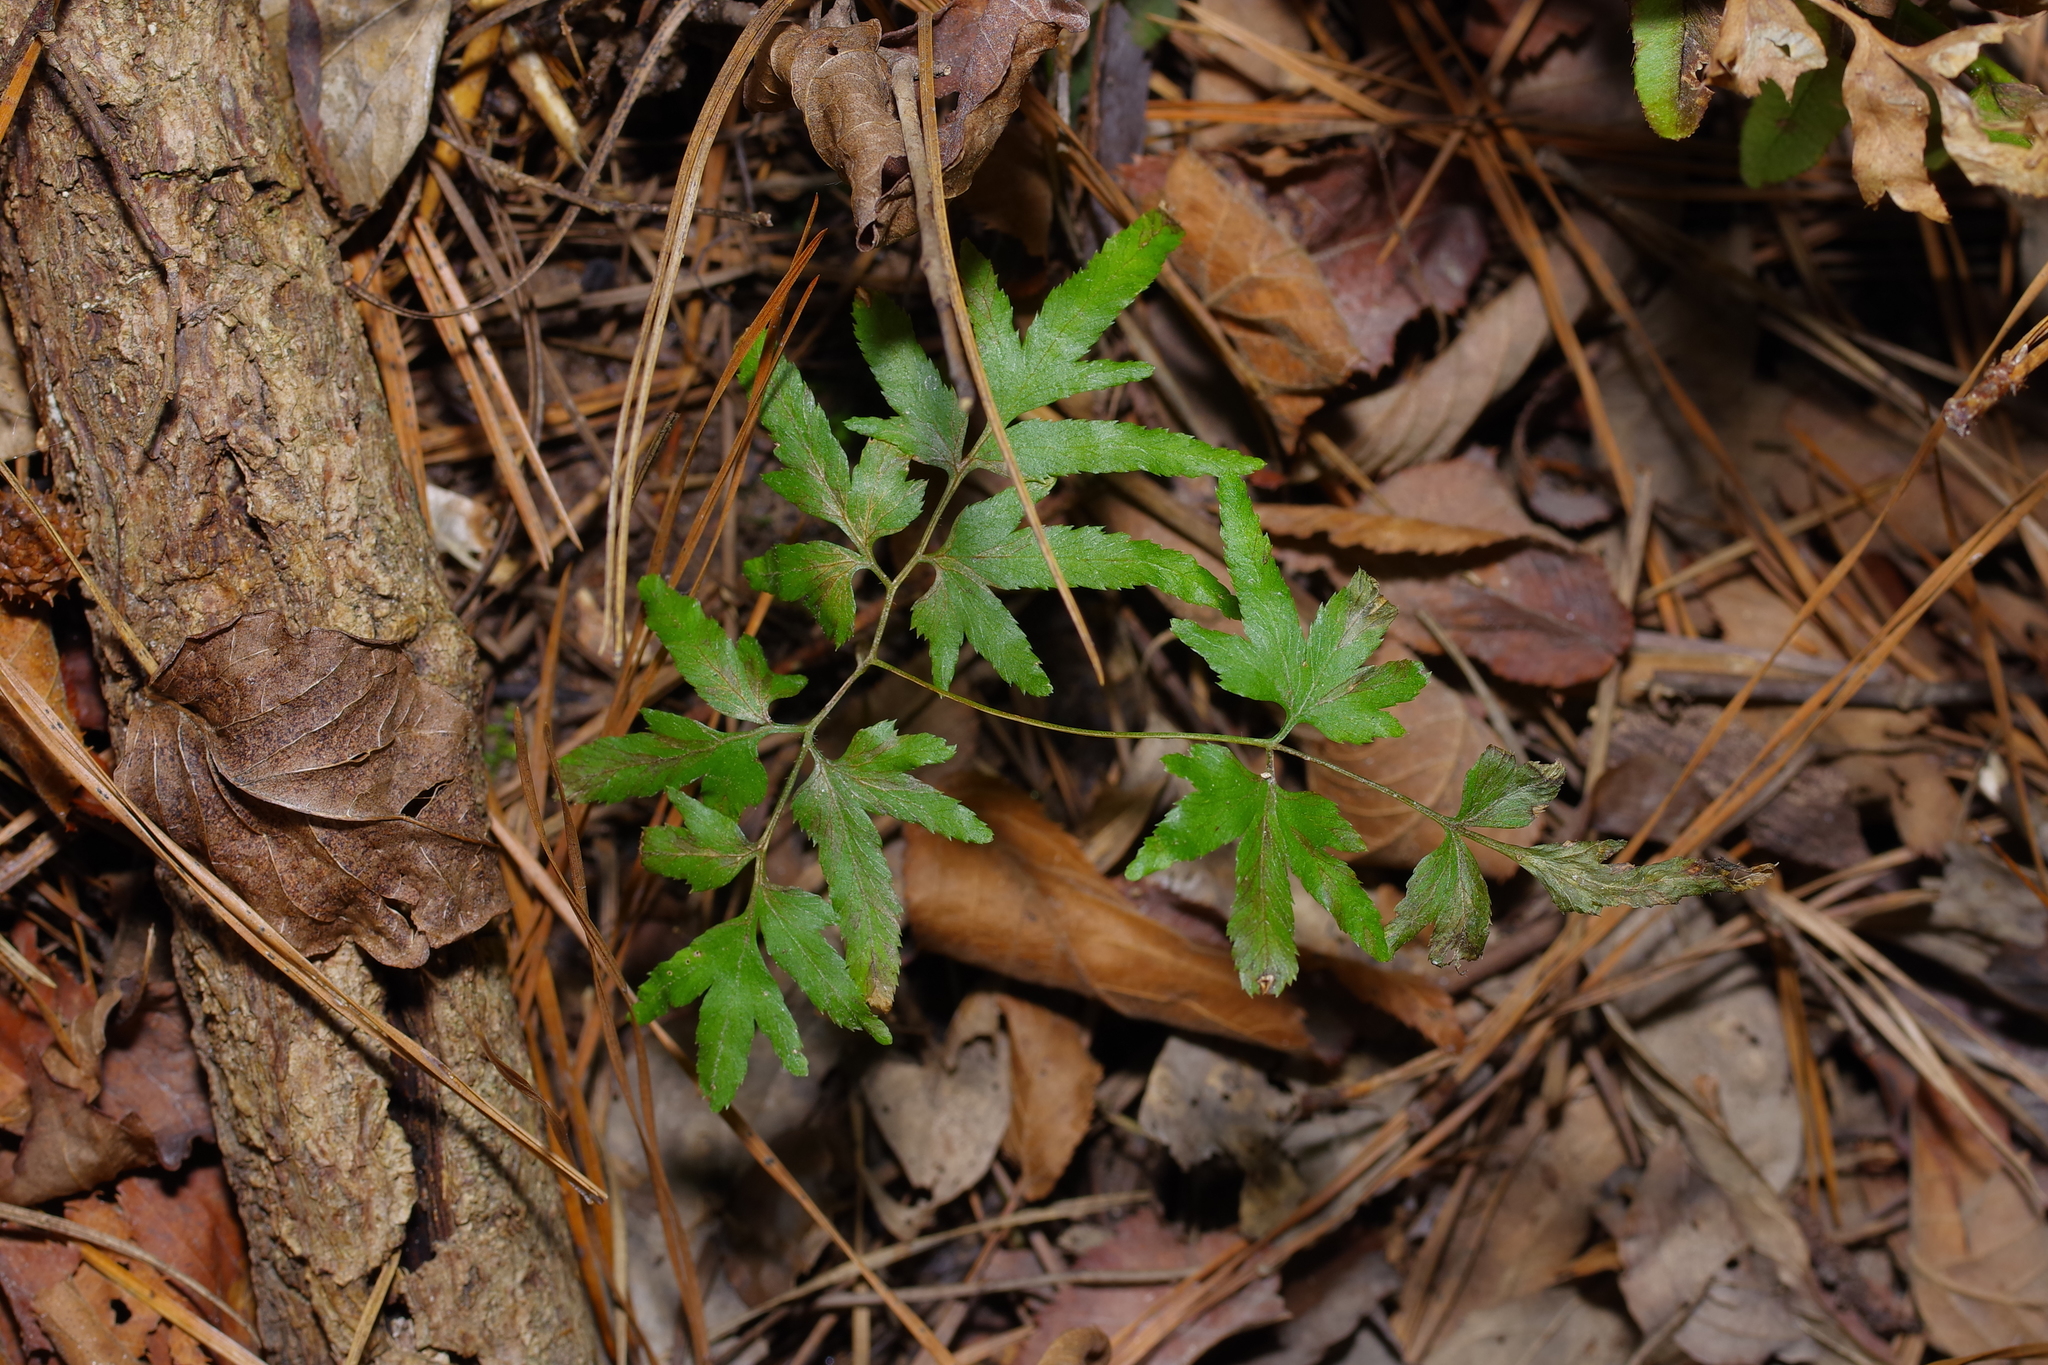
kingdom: Plantae
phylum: Tracheophyta
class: Polypodiopsida
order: Schizaeales
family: Lygodiaceae
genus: Lygodium
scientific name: Lygodium japonicum
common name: Japanese climbing fern
